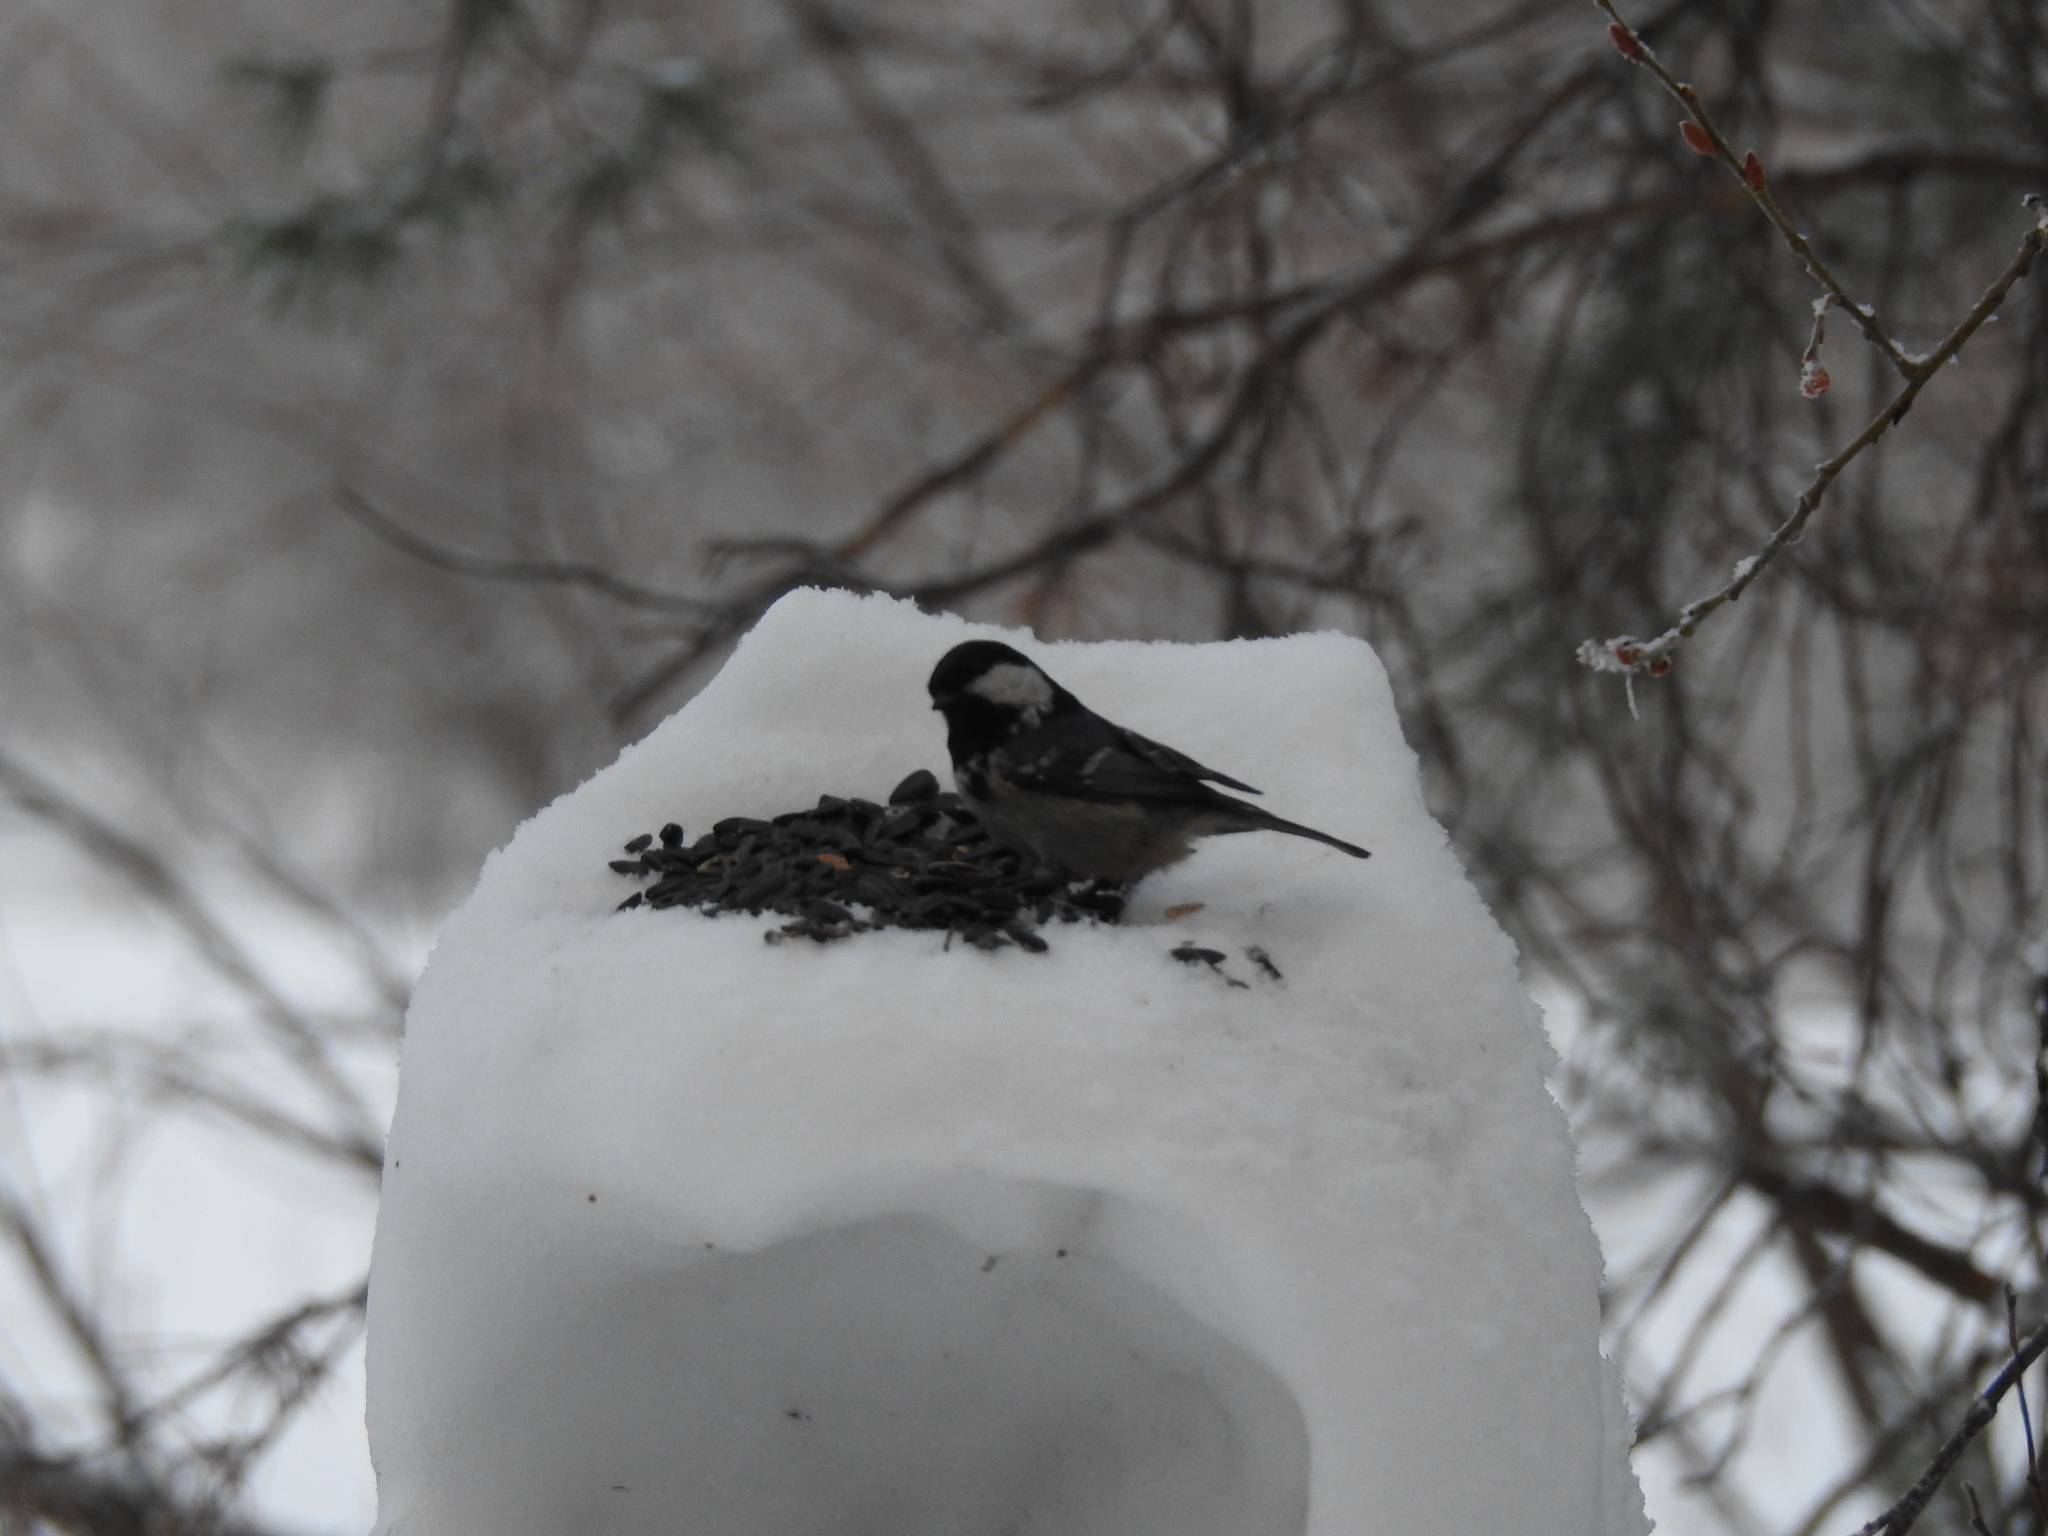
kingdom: Animalia
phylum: Chordata
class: Aves
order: Passeriformes
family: Paridae
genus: Periparus
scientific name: Periparus ater
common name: Coal tit
